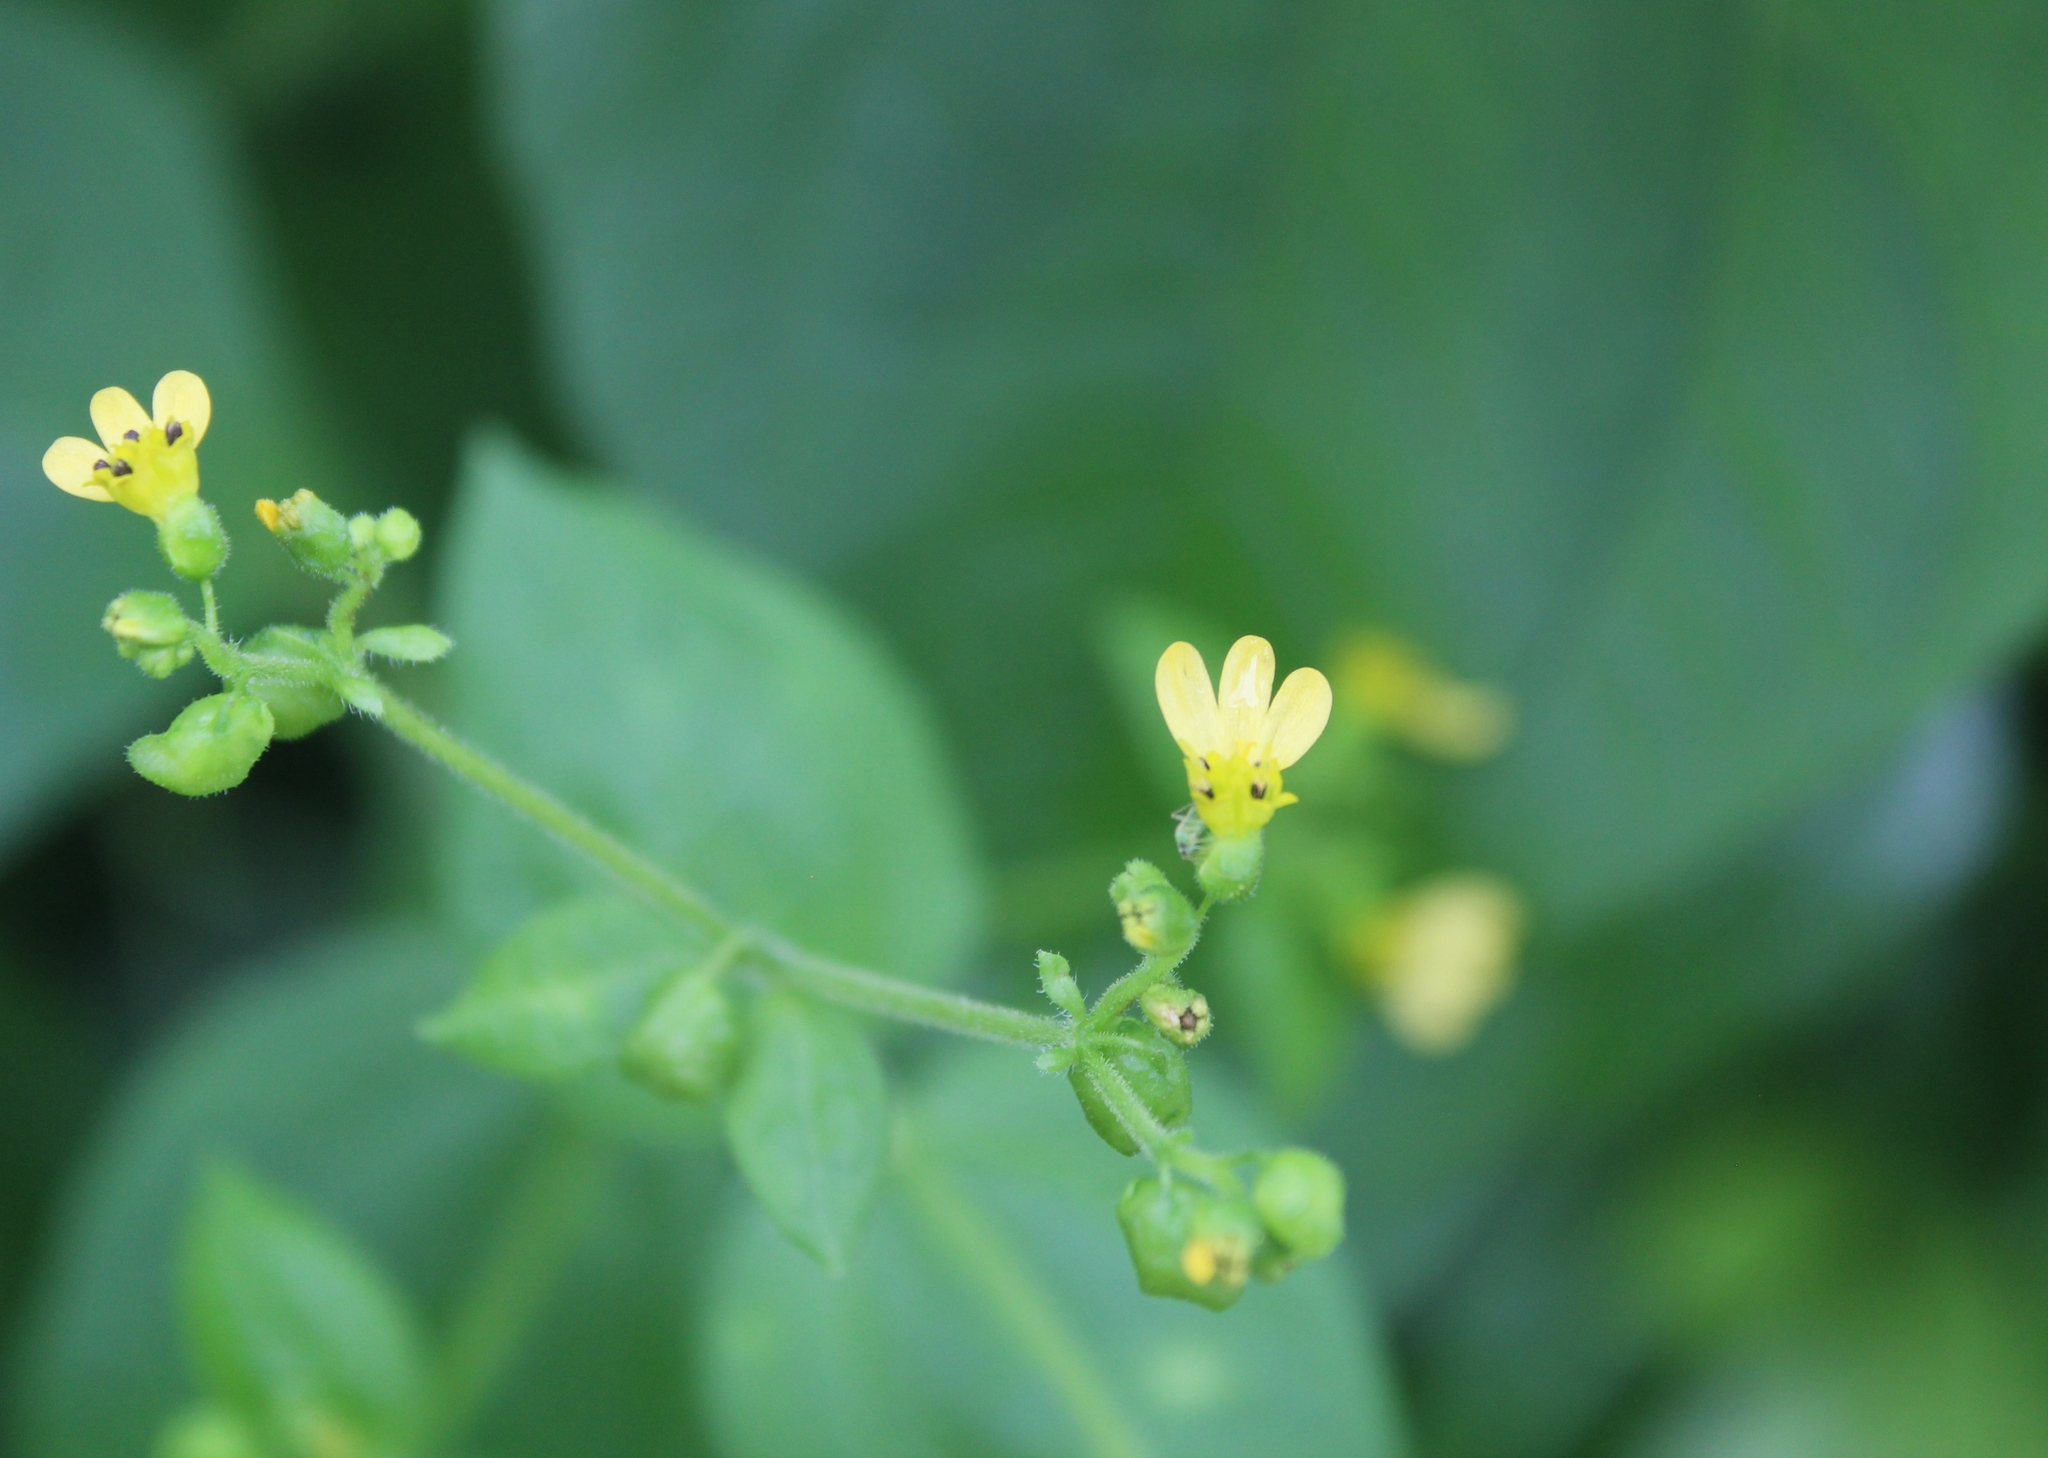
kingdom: Plantae
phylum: Tracheophyta
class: Magnoliopsida
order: Asterales
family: Asteraceae
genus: Milleria
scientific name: Milleria quinqueflora
